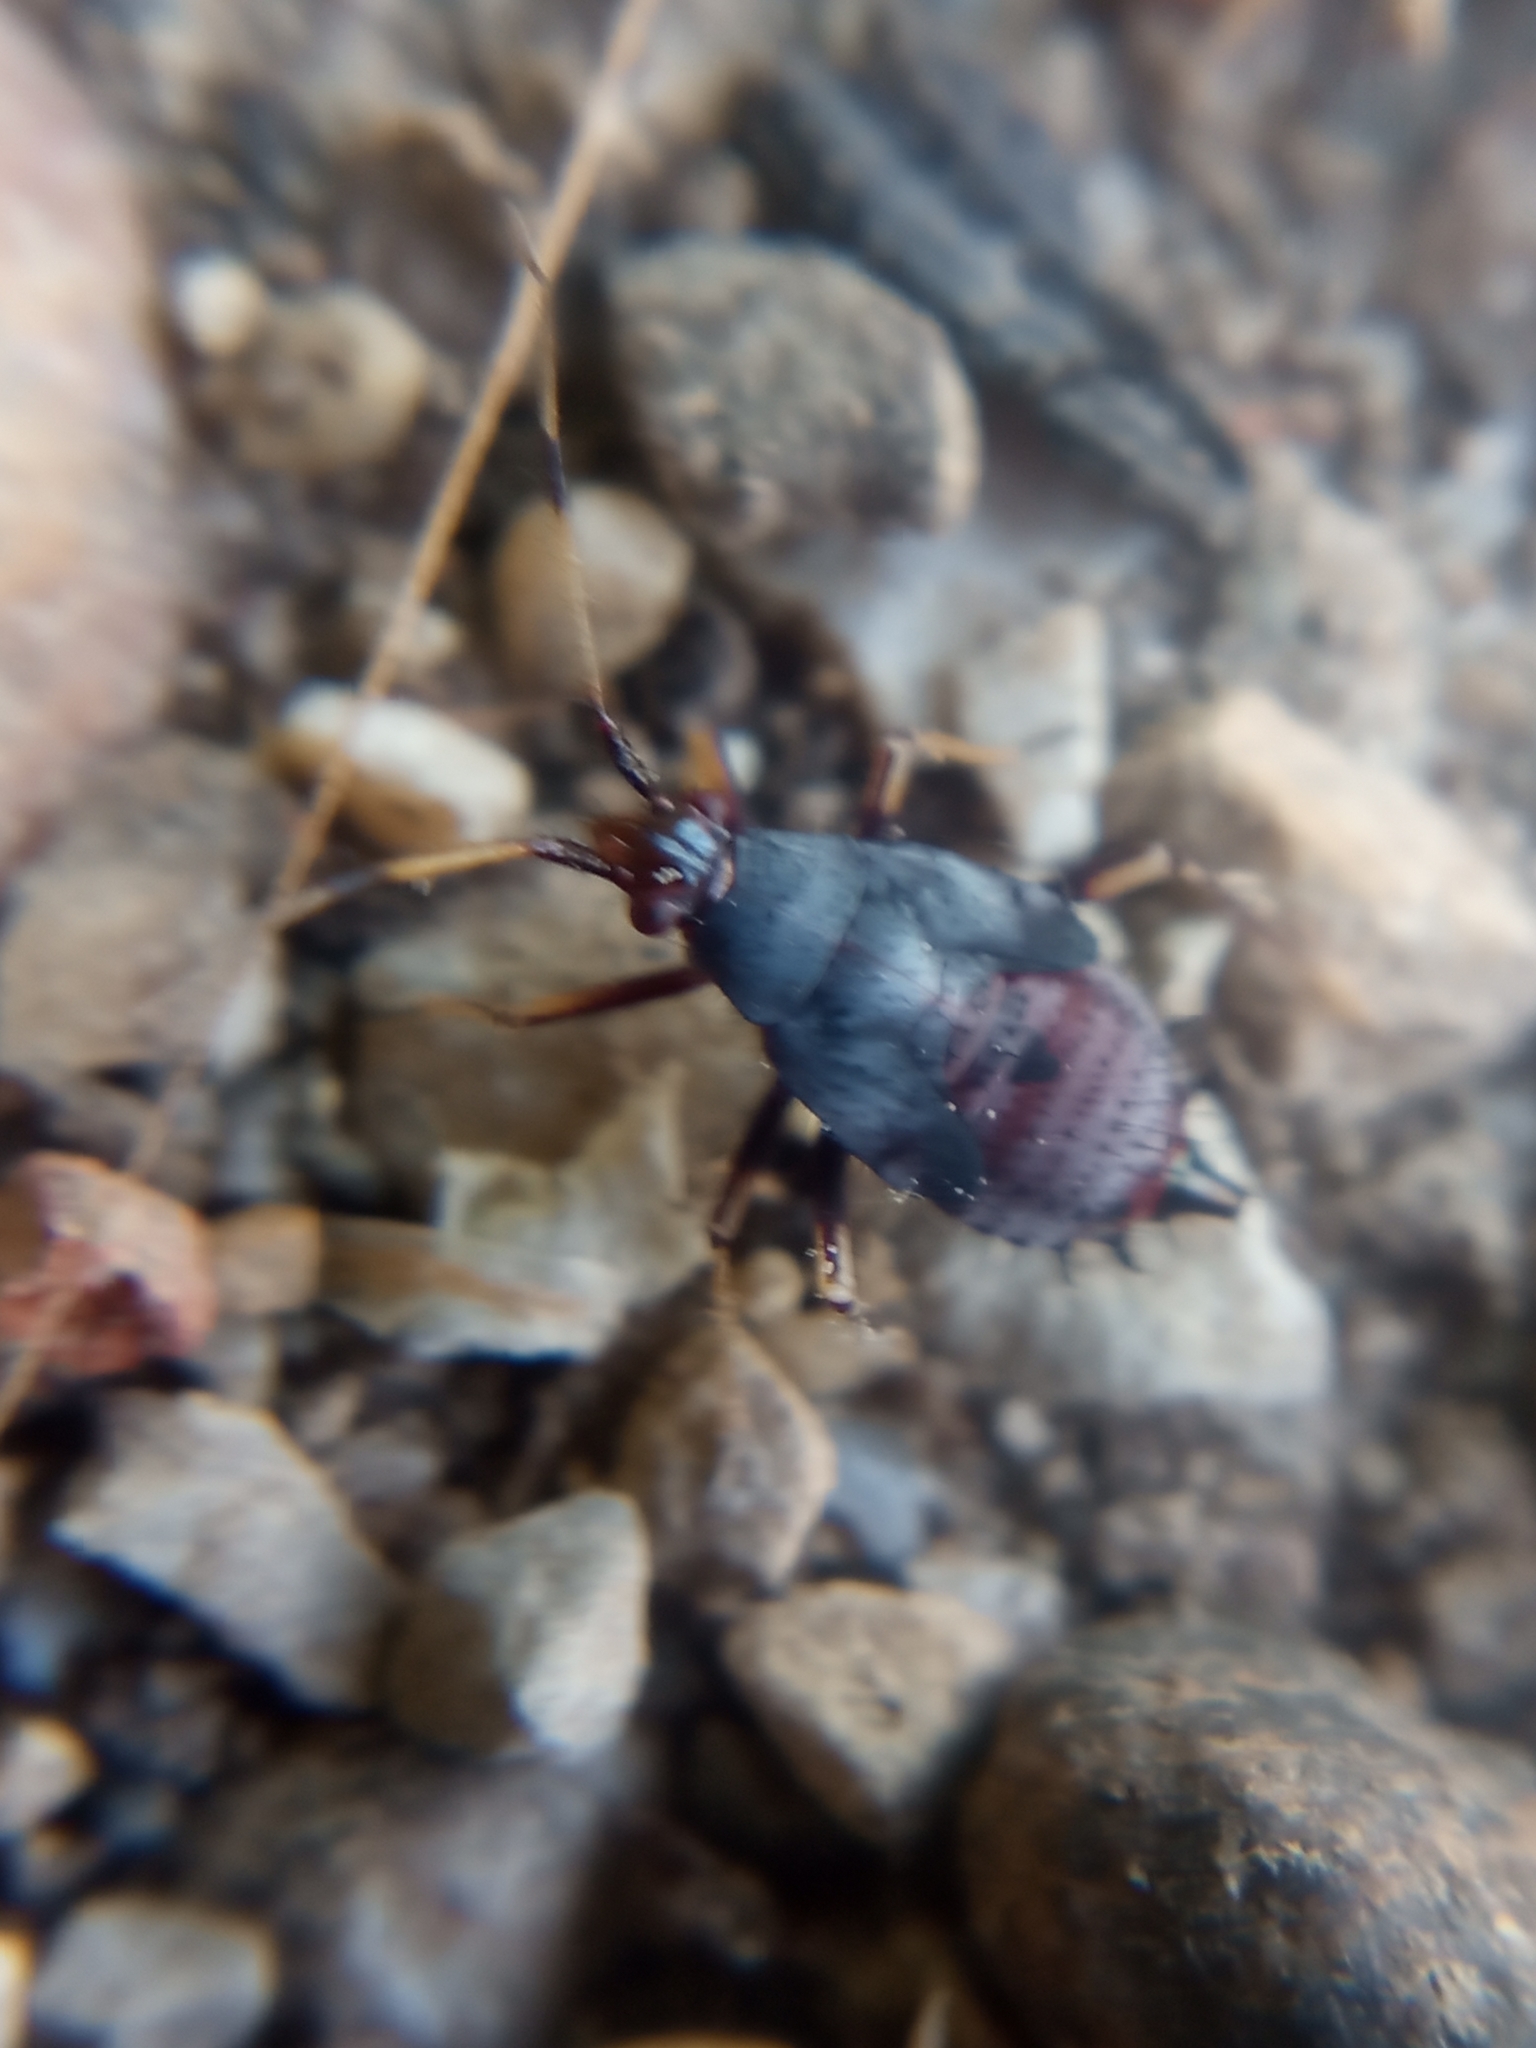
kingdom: Animalia
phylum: Arthropoda
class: Insecta
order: Hemiptera
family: Miridae
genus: Deraeocoris
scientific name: Deraeocoris ruber
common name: Plant bug
